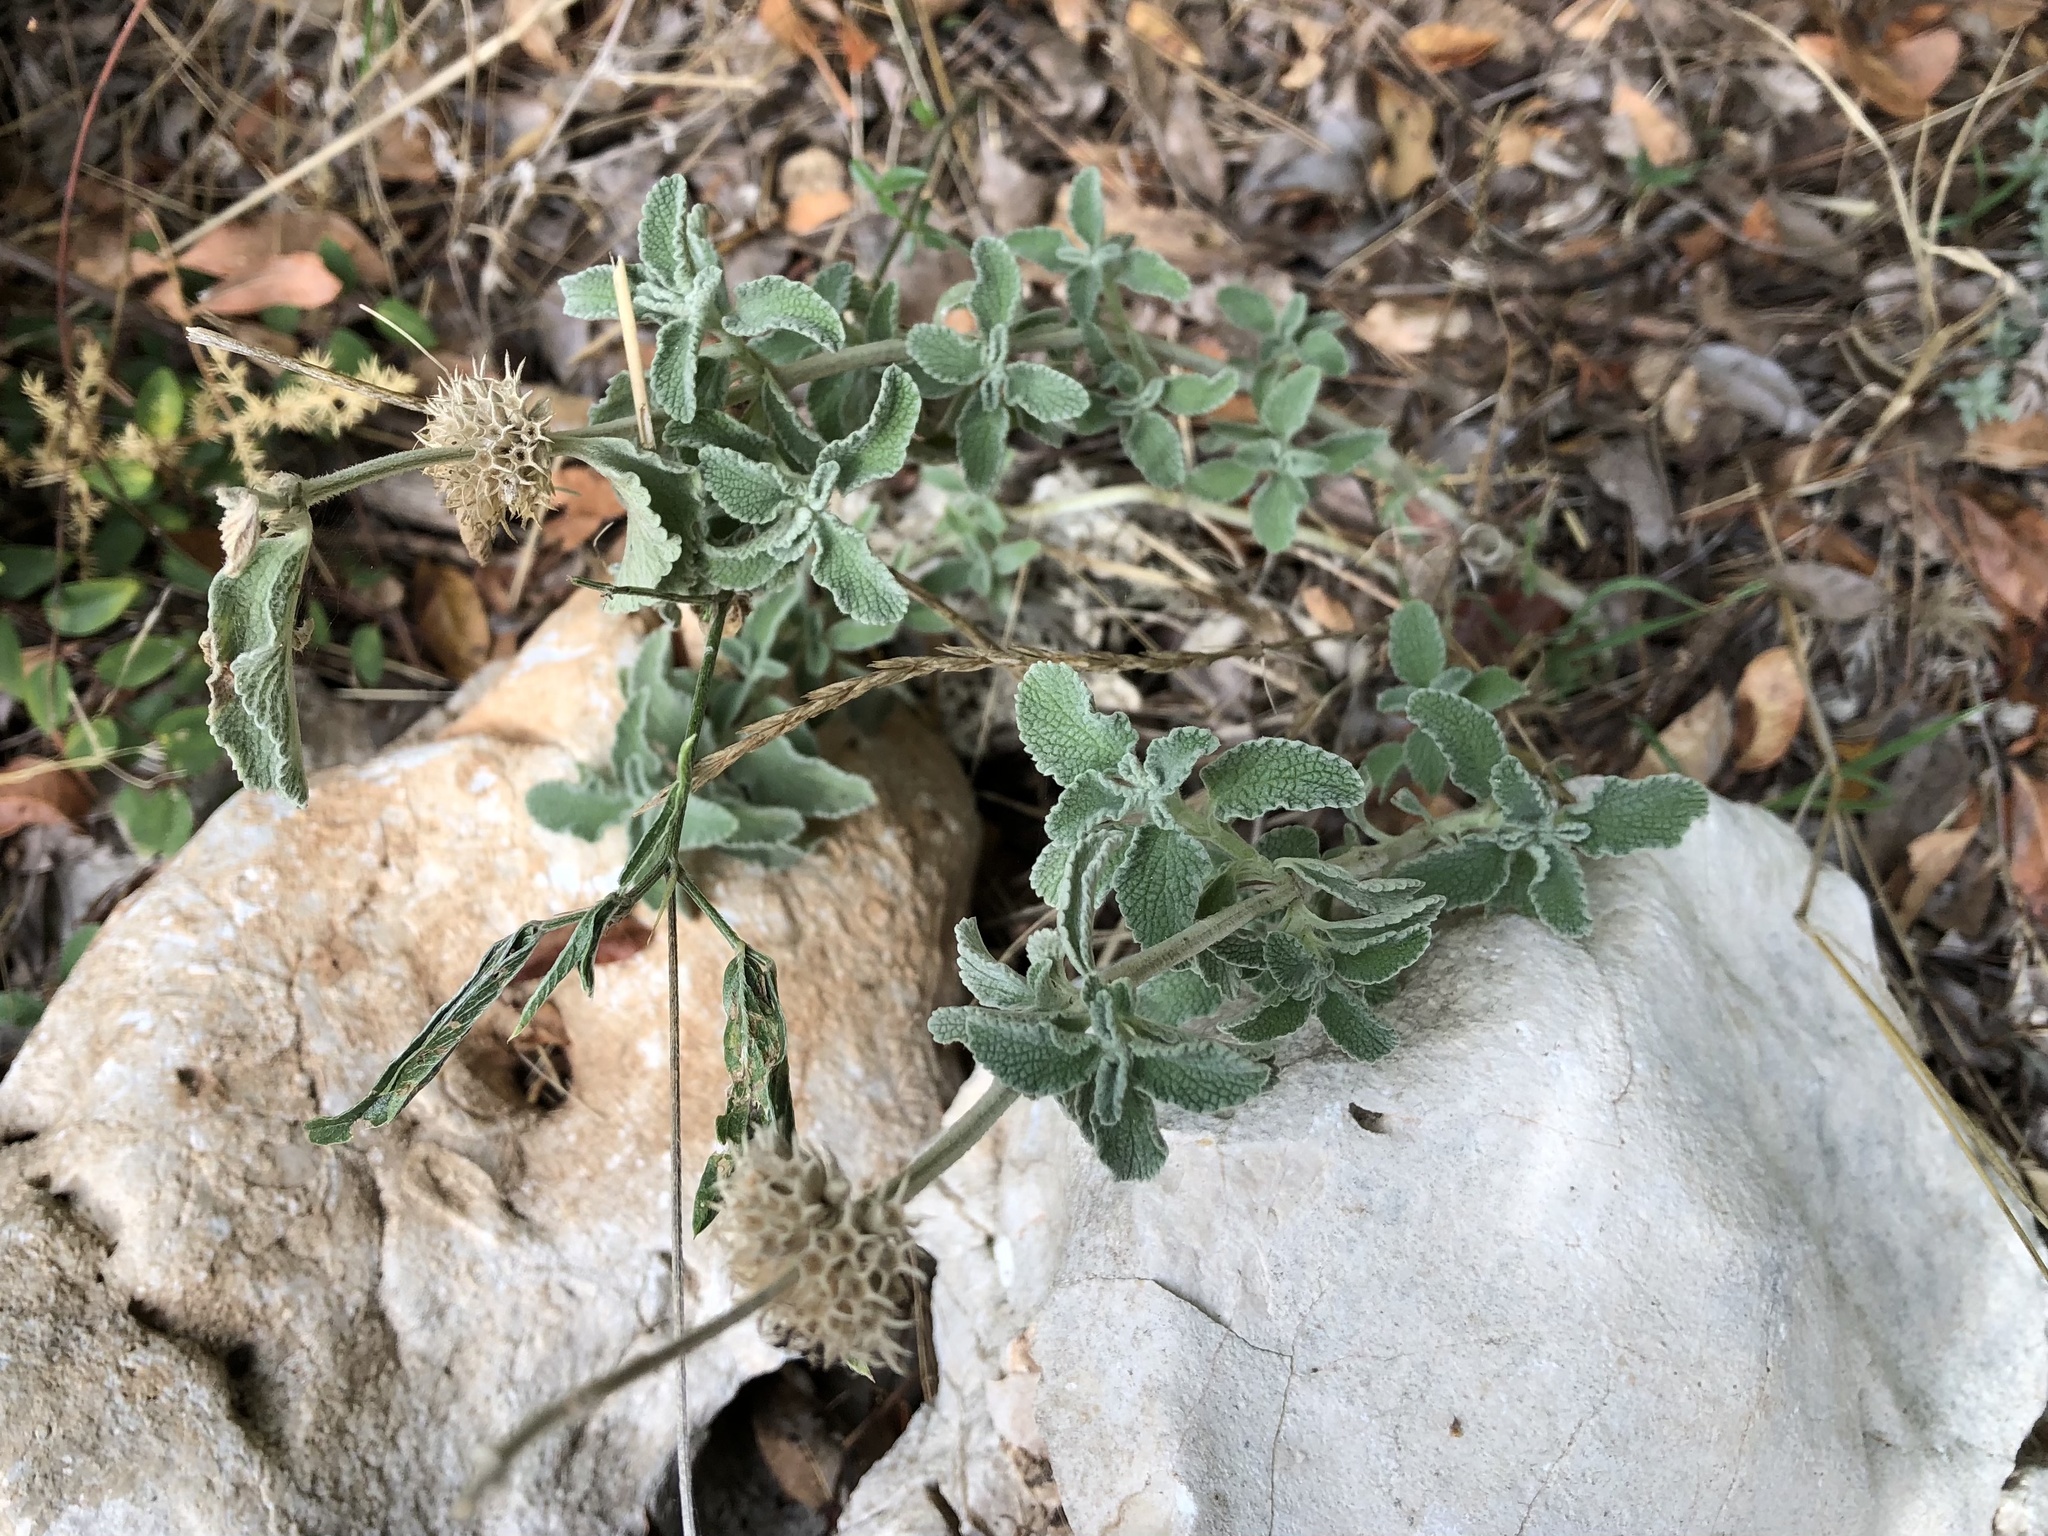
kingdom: Plantae
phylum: Tracheophyta
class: Magnoliopsida
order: Lamiales
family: Lamiaceae
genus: Marrubium
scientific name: Marrubium vulgare
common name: Horehound
